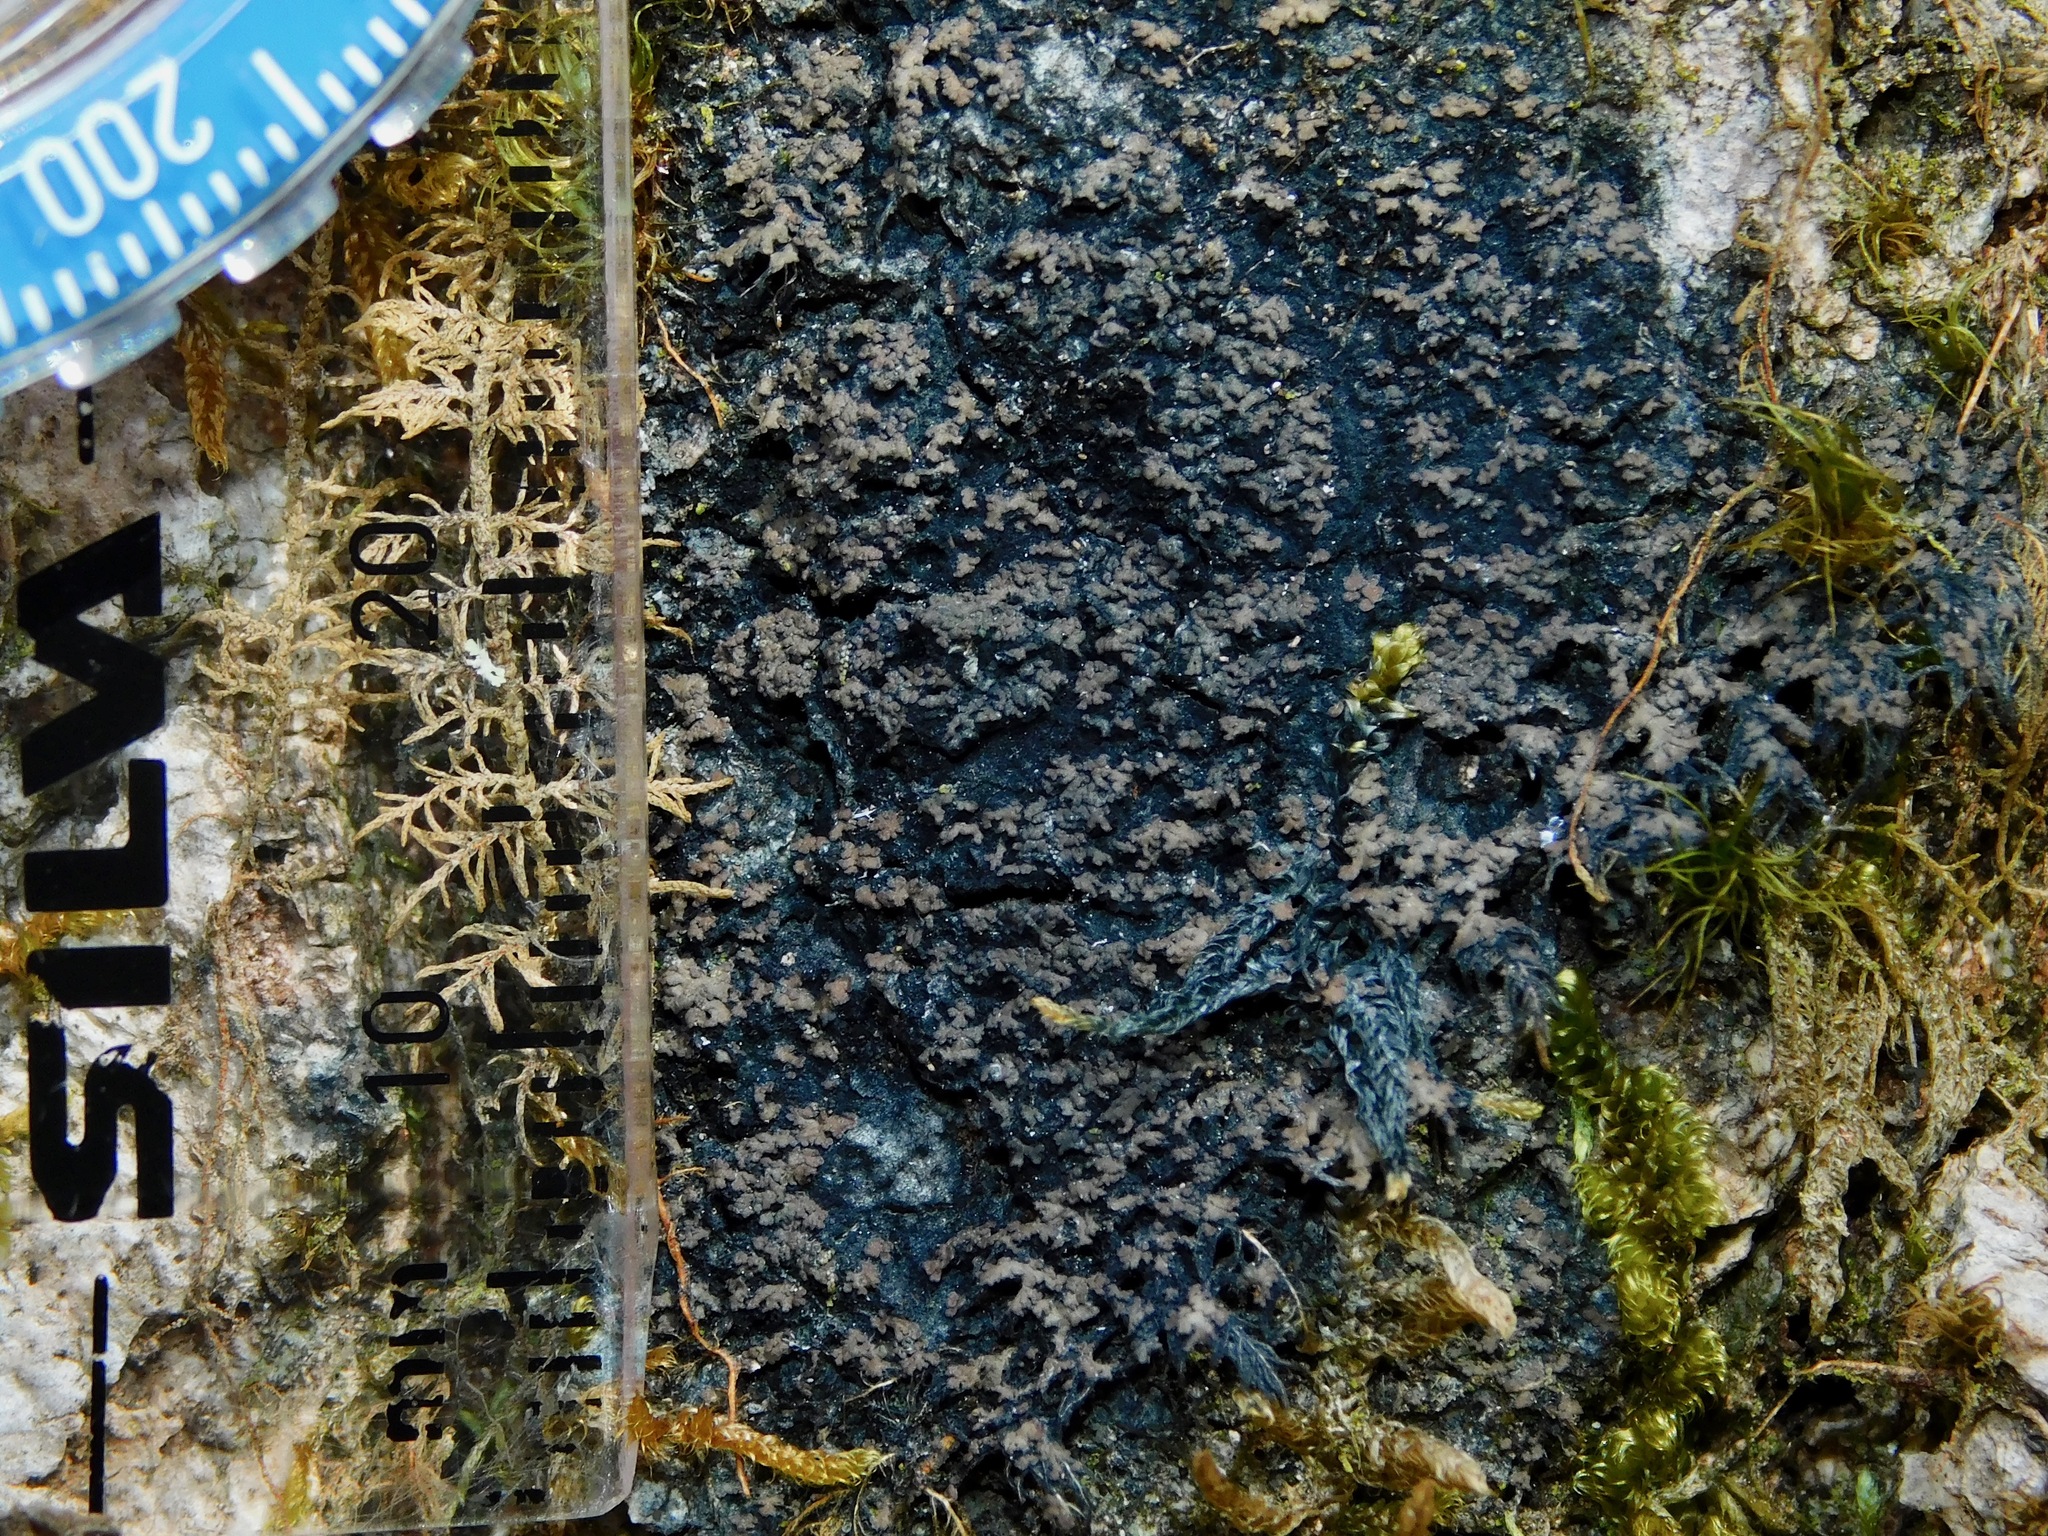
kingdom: Fungi
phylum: Ascomycota
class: Lecanoromycetes
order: Peltigerales
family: Pannariaceae
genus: Parmeliella
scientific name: Parmeliella thriptophylla
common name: Black-bordered shingle lichen
